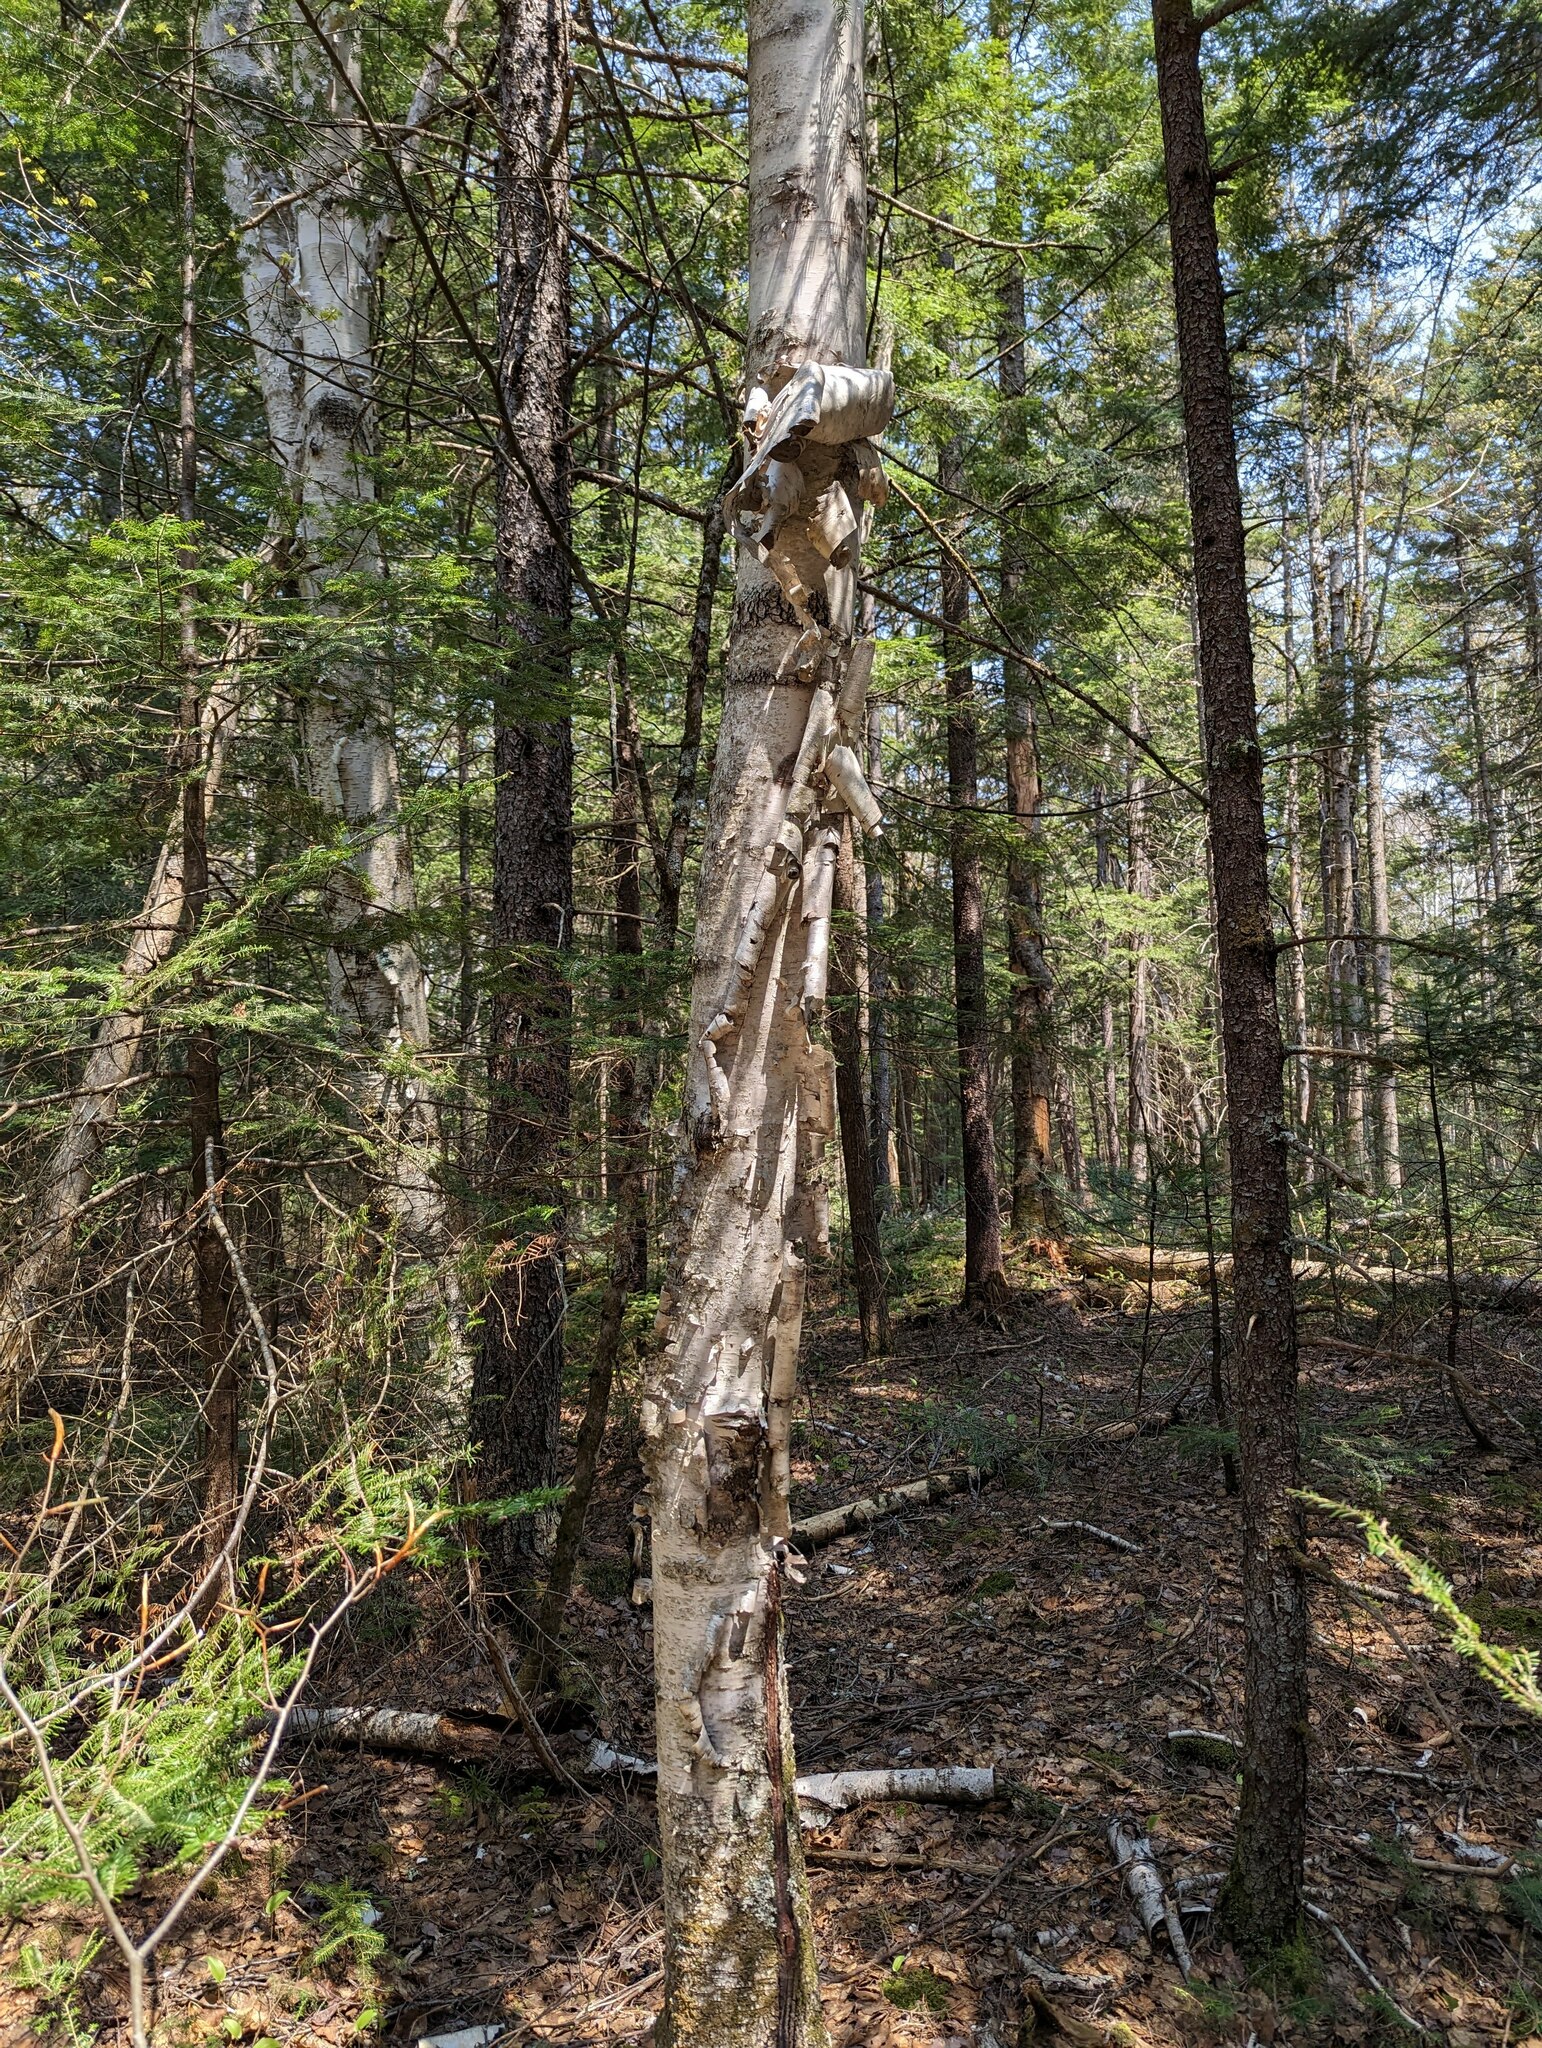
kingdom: Plantae
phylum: Tracheophyta
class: Magnoliopsida
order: Fagales
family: Betulaceae
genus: Betula
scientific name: Betula papyrifera
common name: Paper birch
